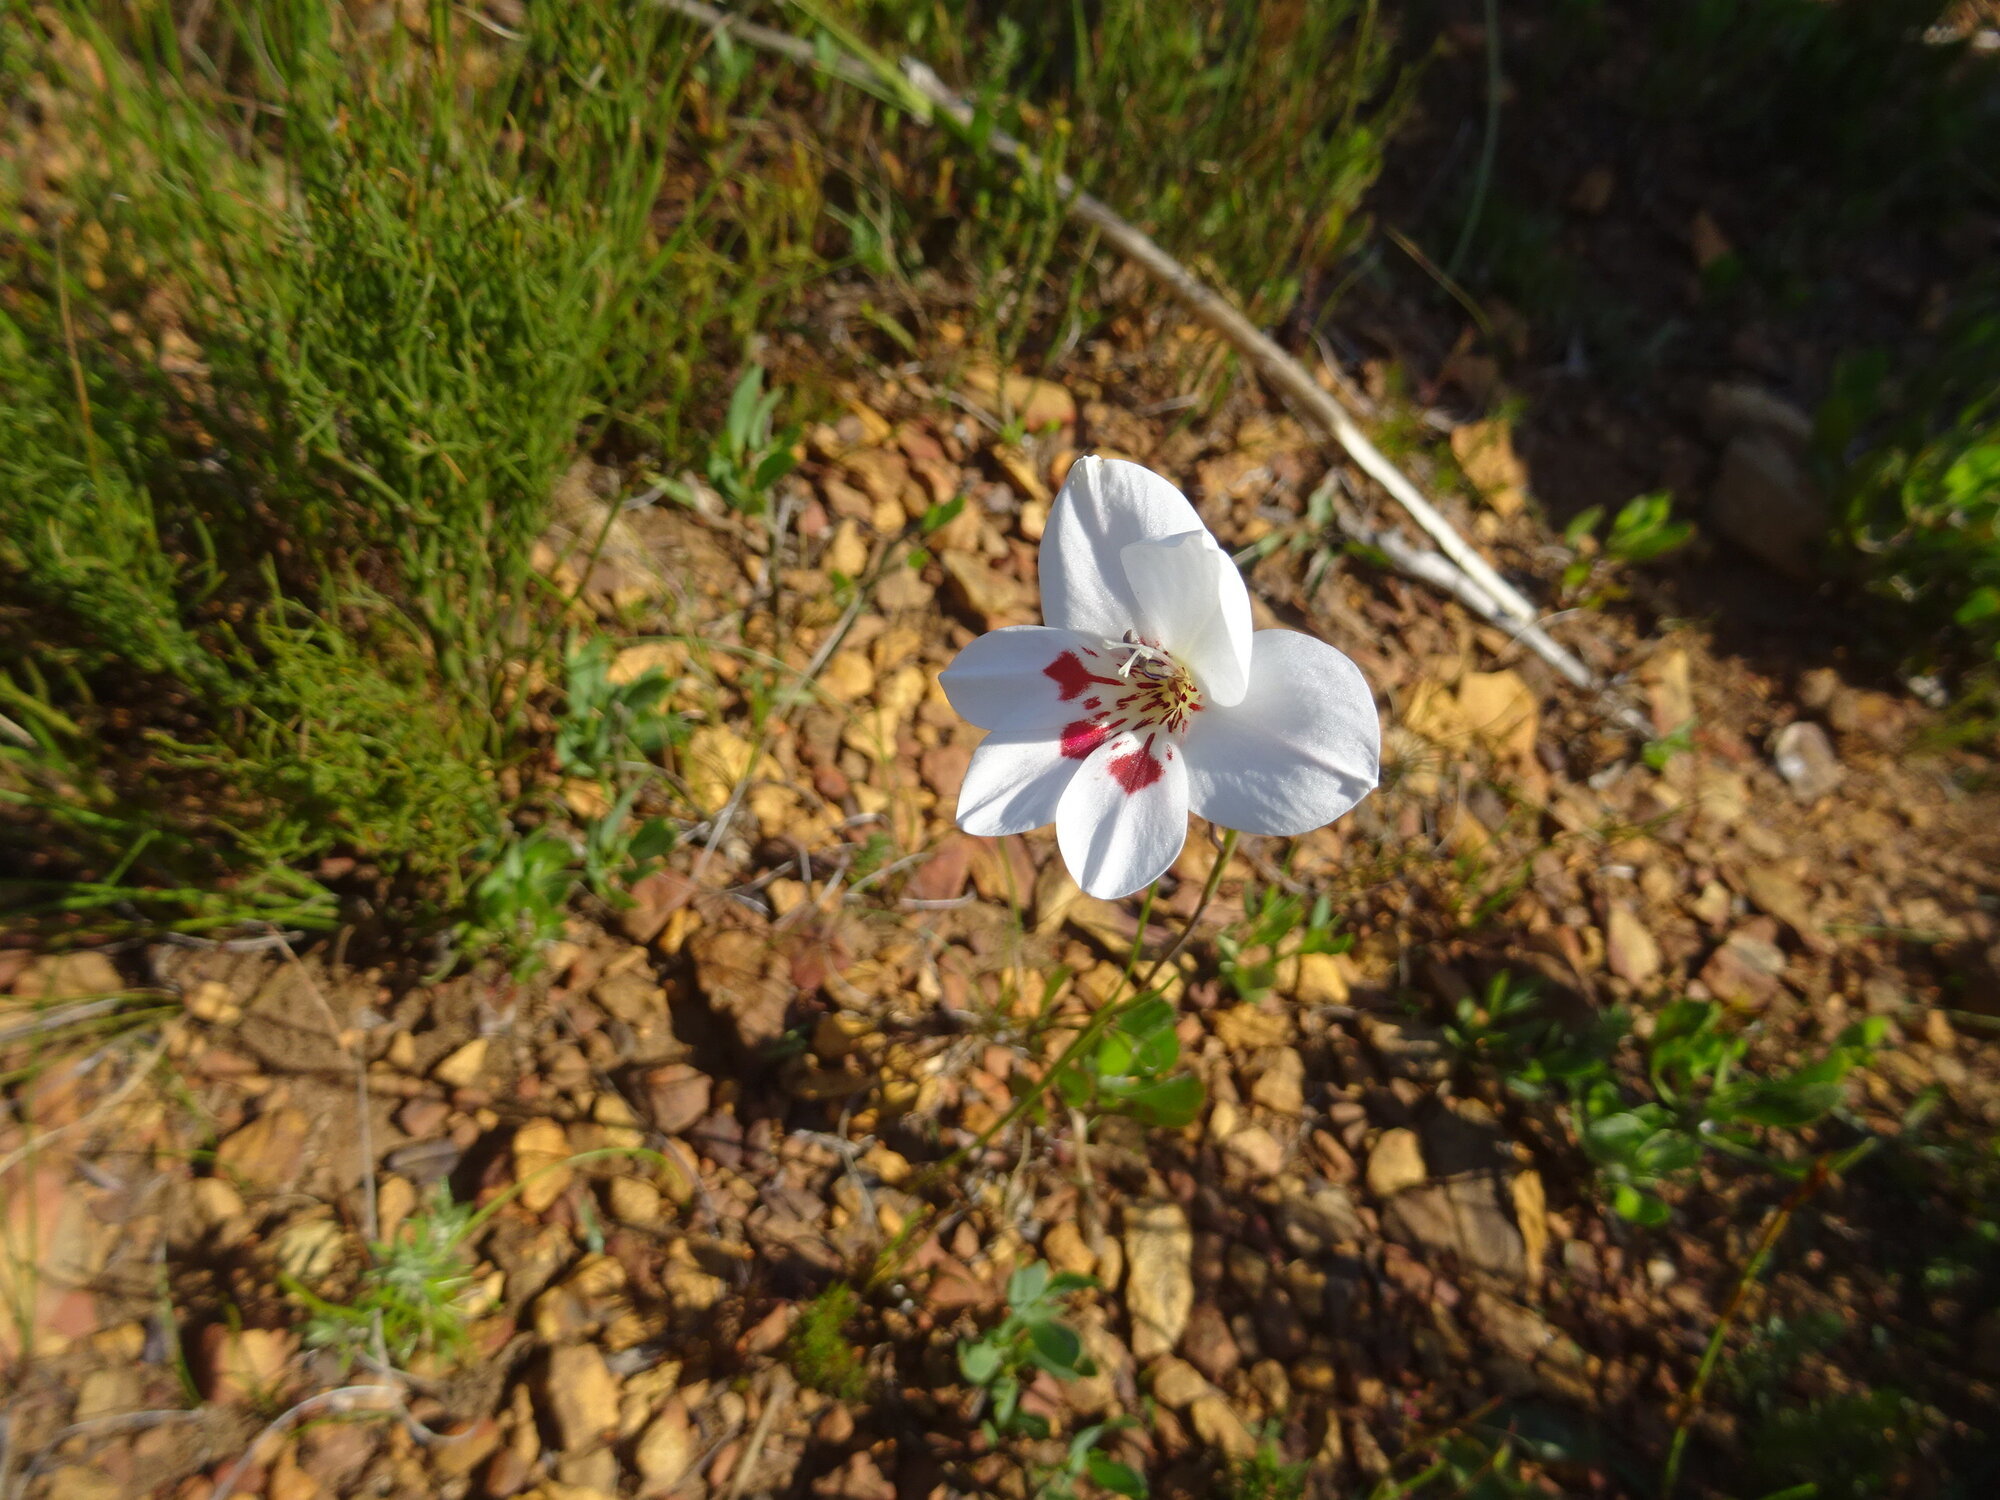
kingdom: Plantae
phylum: Tracheophyta
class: Liliopsida
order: Asparagales
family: Iridaceae
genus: Gladiolus
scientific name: Gladiolus debilis
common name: Painted-lady
